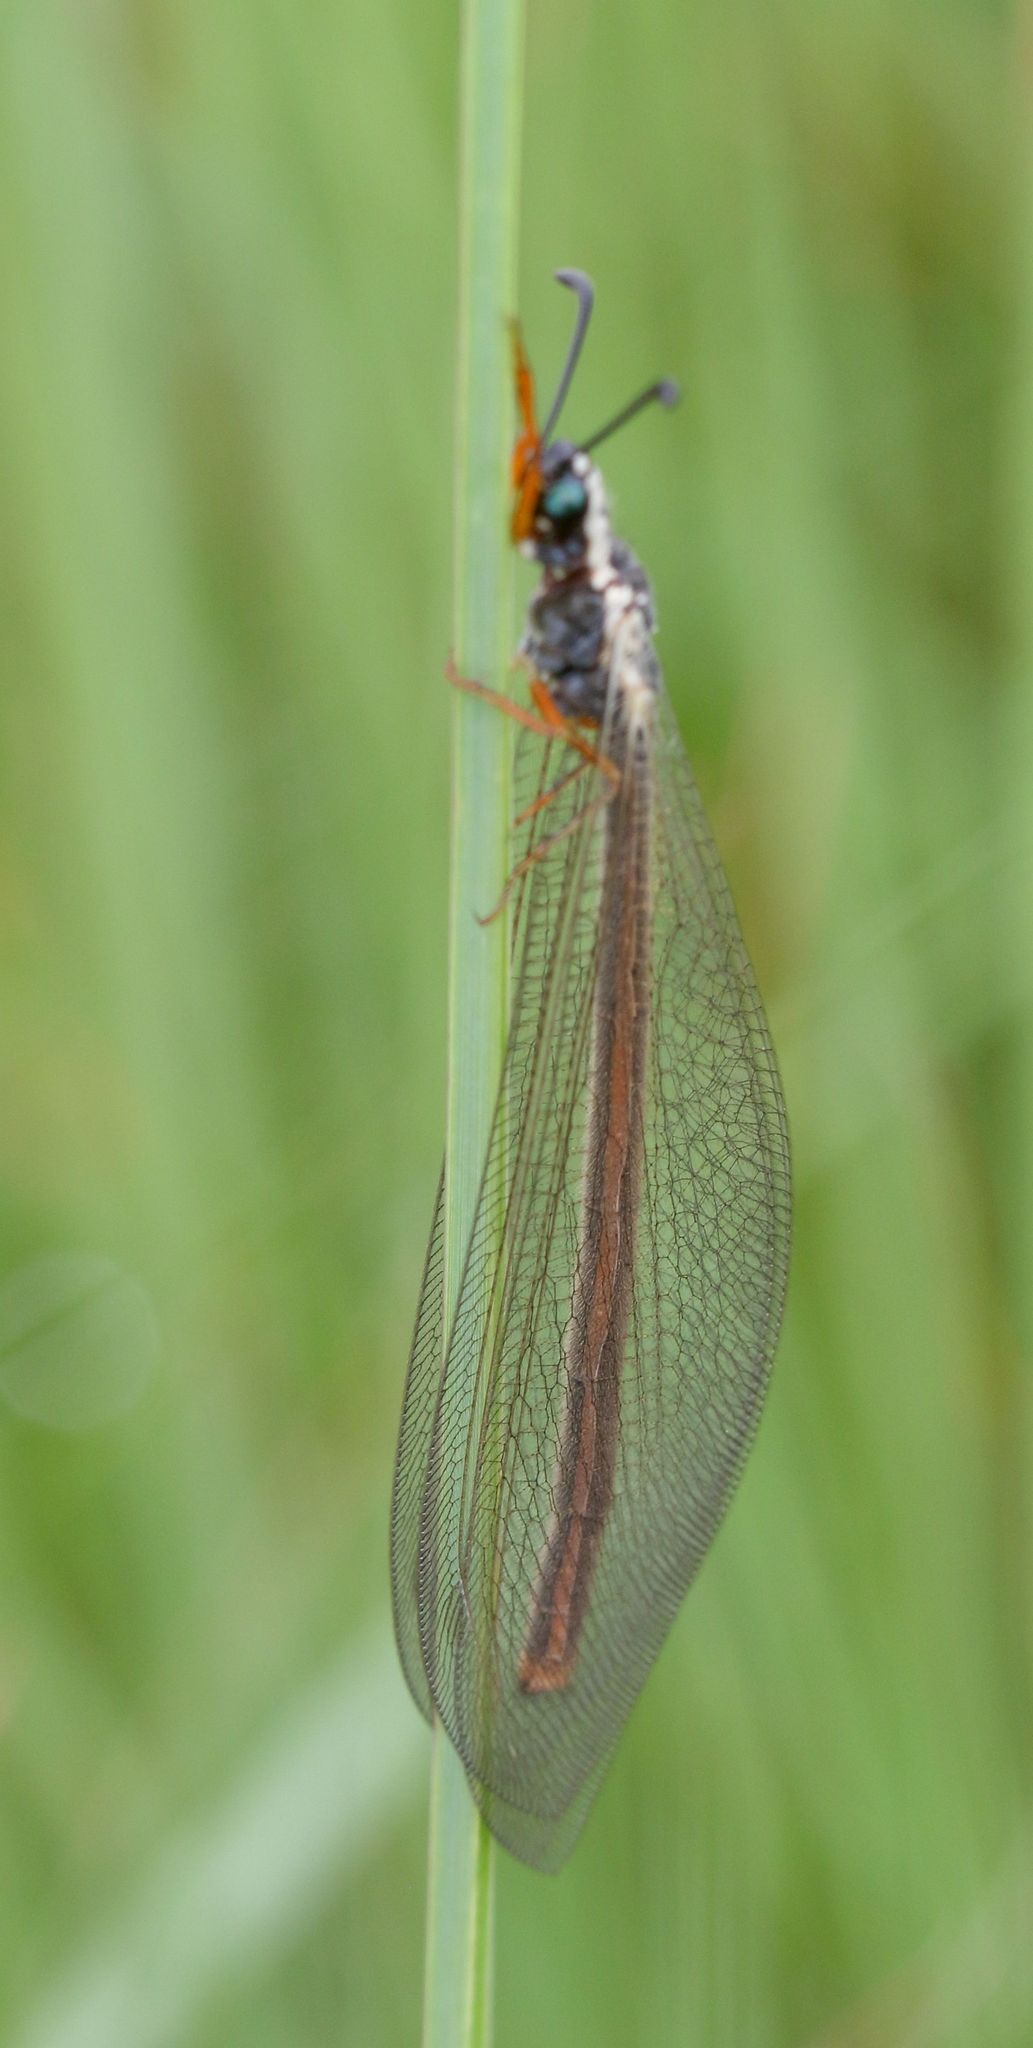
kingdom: Animalia
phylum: Arthropoda
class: Insecta
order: Neuroptera
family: Myrmeleontidae
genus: Myrmeleon
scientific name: Myrmeleon lethifer
